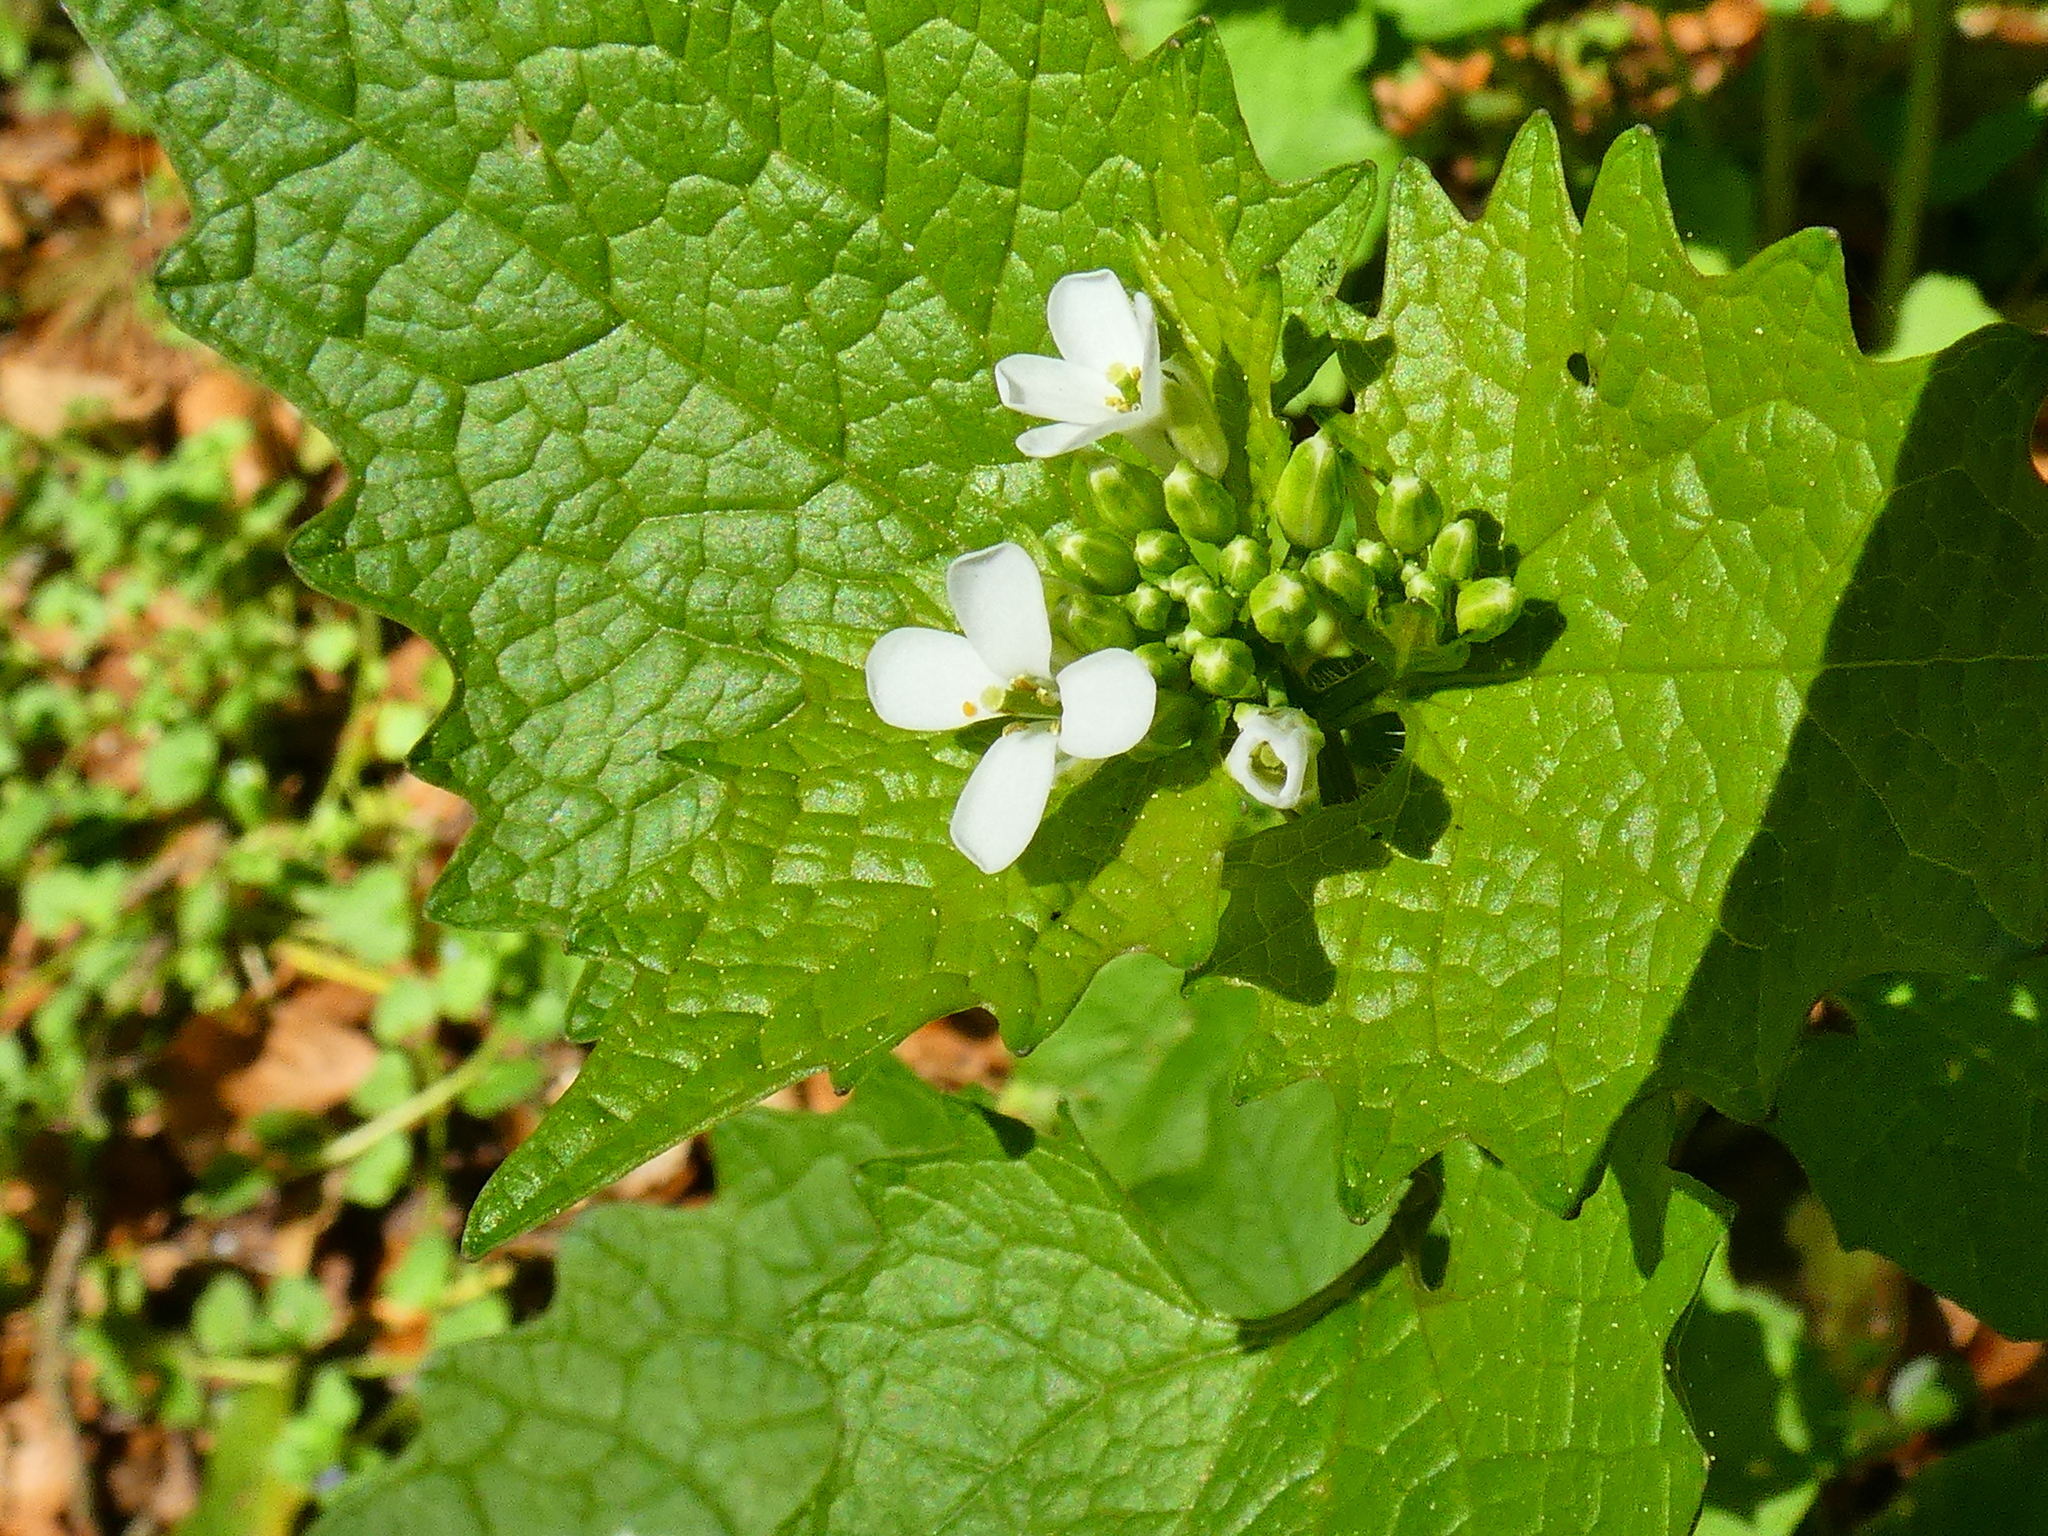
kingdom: Plantae
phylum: Tracheophyta
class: Magnoliopsida
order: Brassicales
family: Brassicaceae
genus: Alliaria
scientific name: Alliaria petiolata
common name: Garlic mustard
